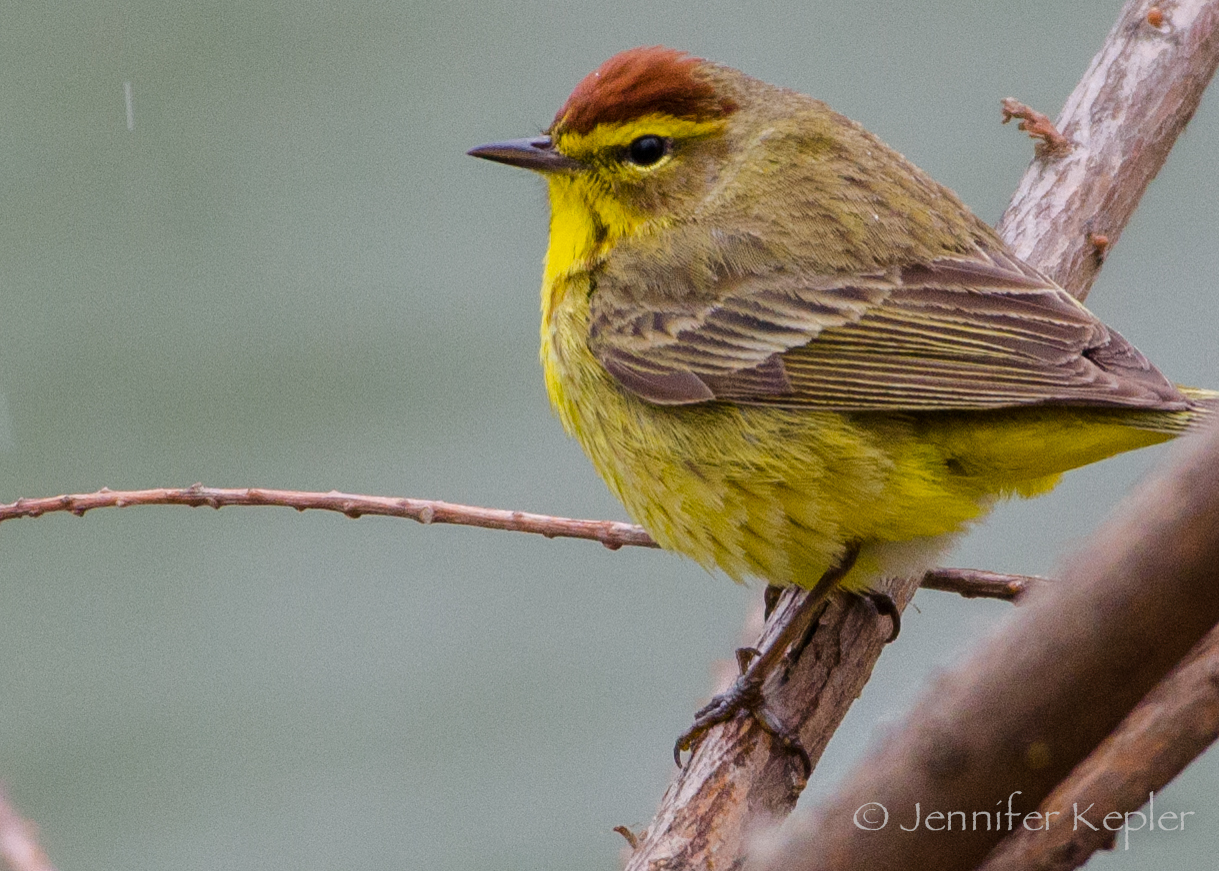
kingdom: Animalia
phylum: Chordata
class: Aves
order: Passeriformes
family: Parulidae
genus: Setophaga
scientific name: Setophaga palmarum
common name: Palm warbler
